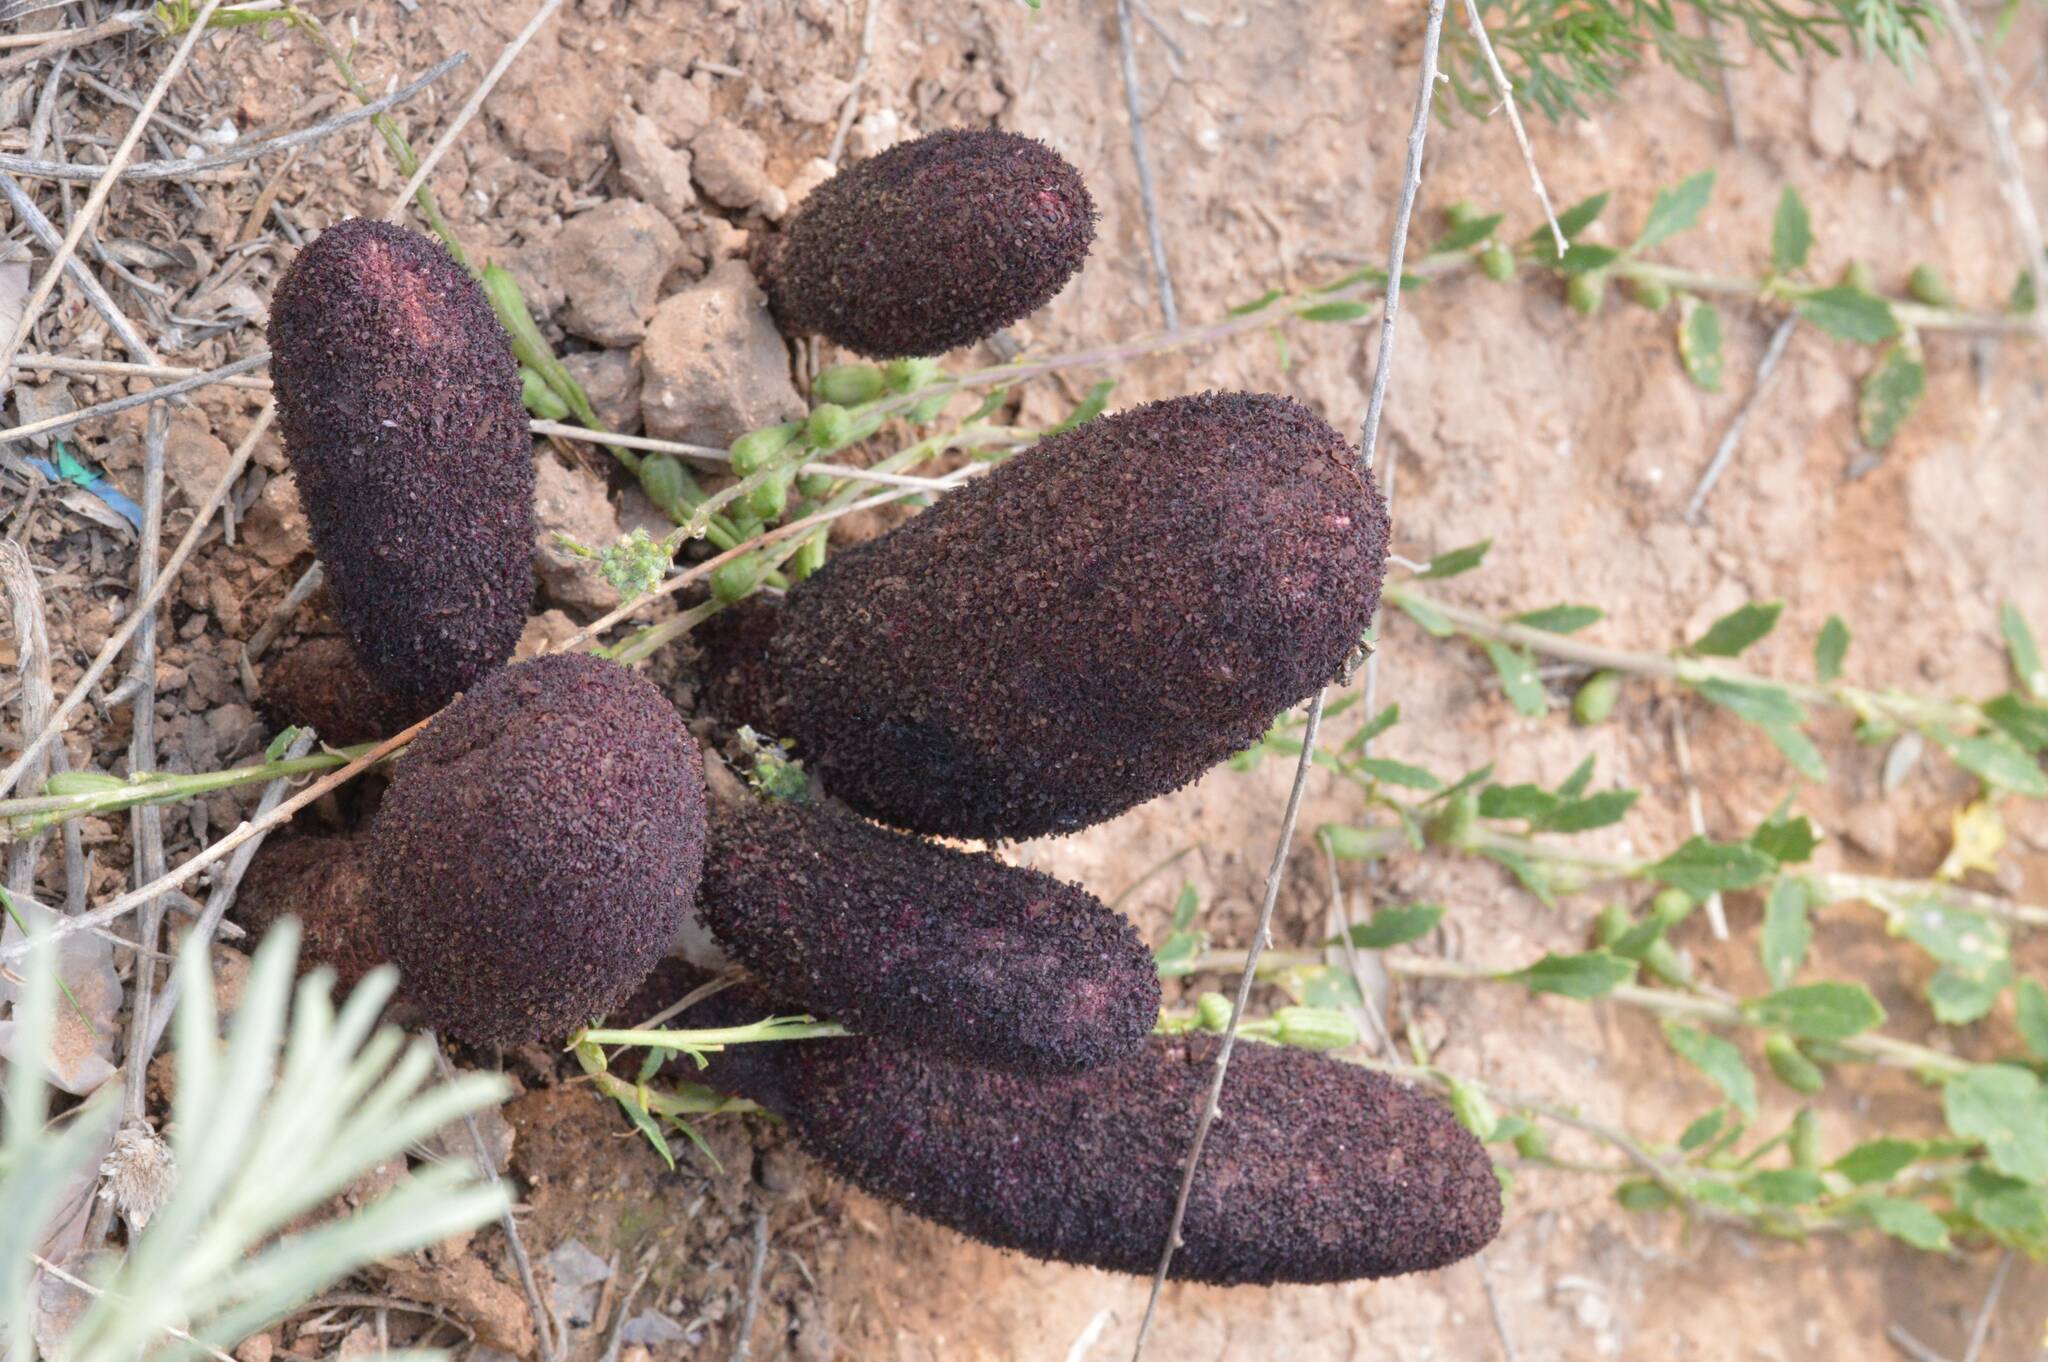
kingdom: Plantae
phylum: Tracheophyta
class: Magnoliopsida
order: Saxifragales
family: Cynomoriaceae
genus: Cynomorium
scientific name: Cynomorium coccineum
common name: Maltese-mushroom
